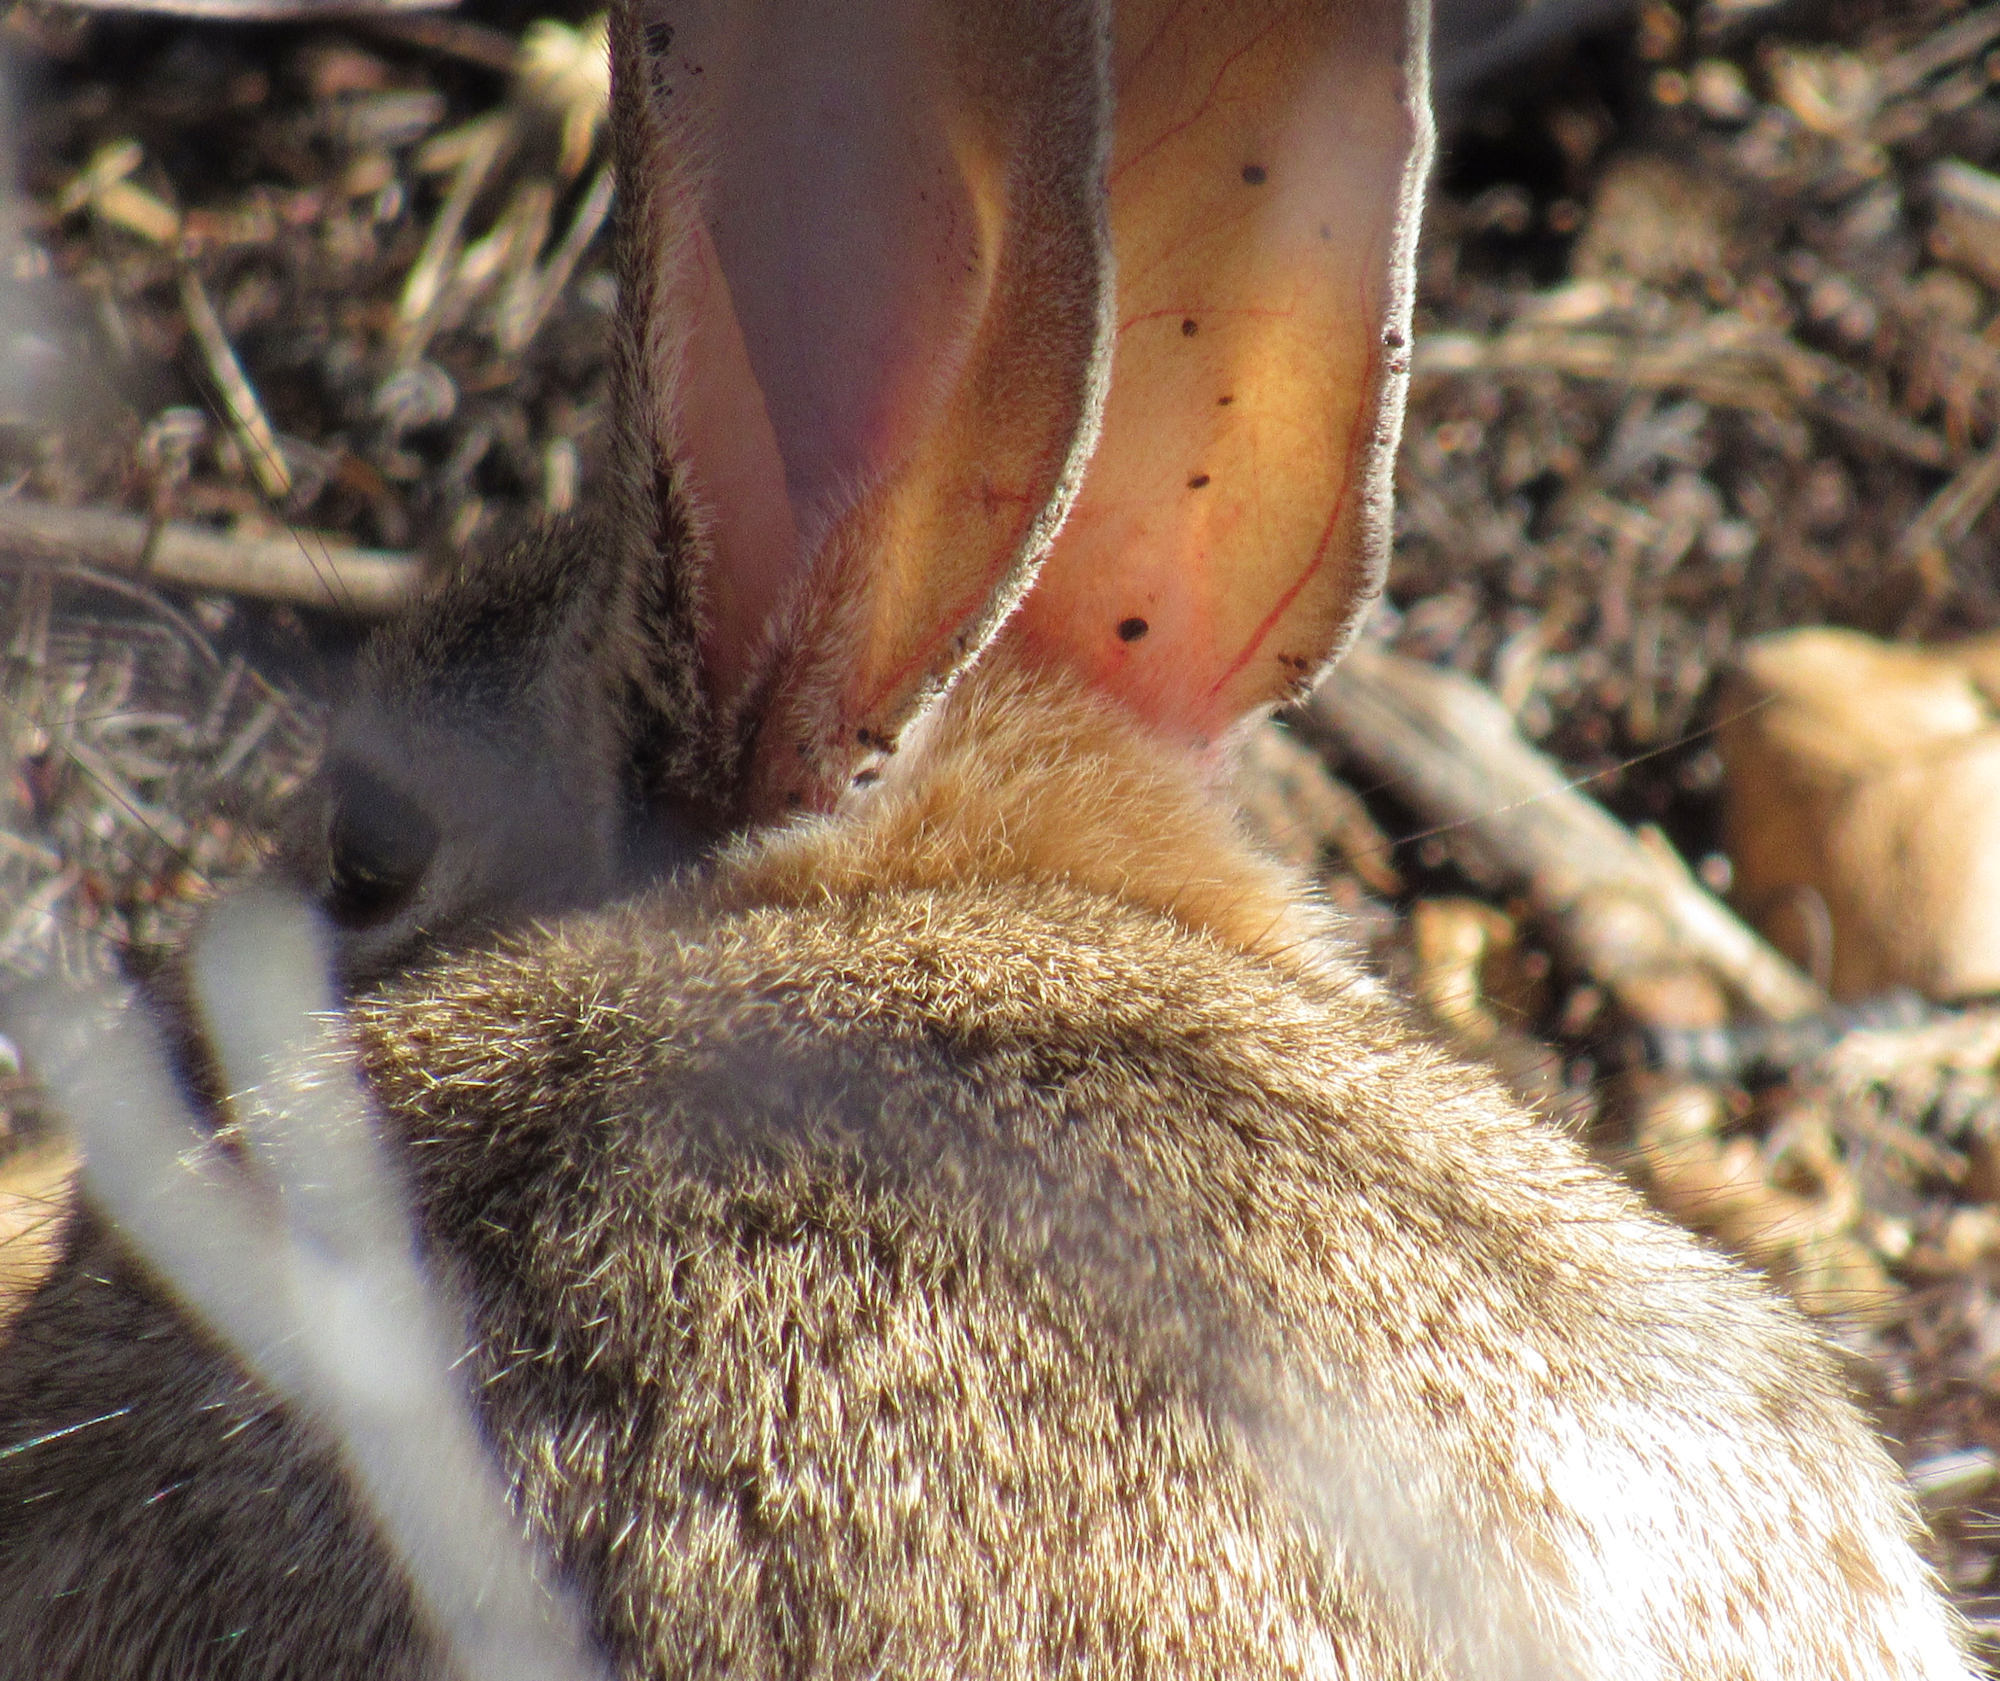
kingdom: Animalia
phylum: Chordata
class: Mammalia
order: Lagomorpha
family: Leporidae
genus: Sylvilagus
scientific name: Sylvilagus audubonii
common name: Desert cottontail
